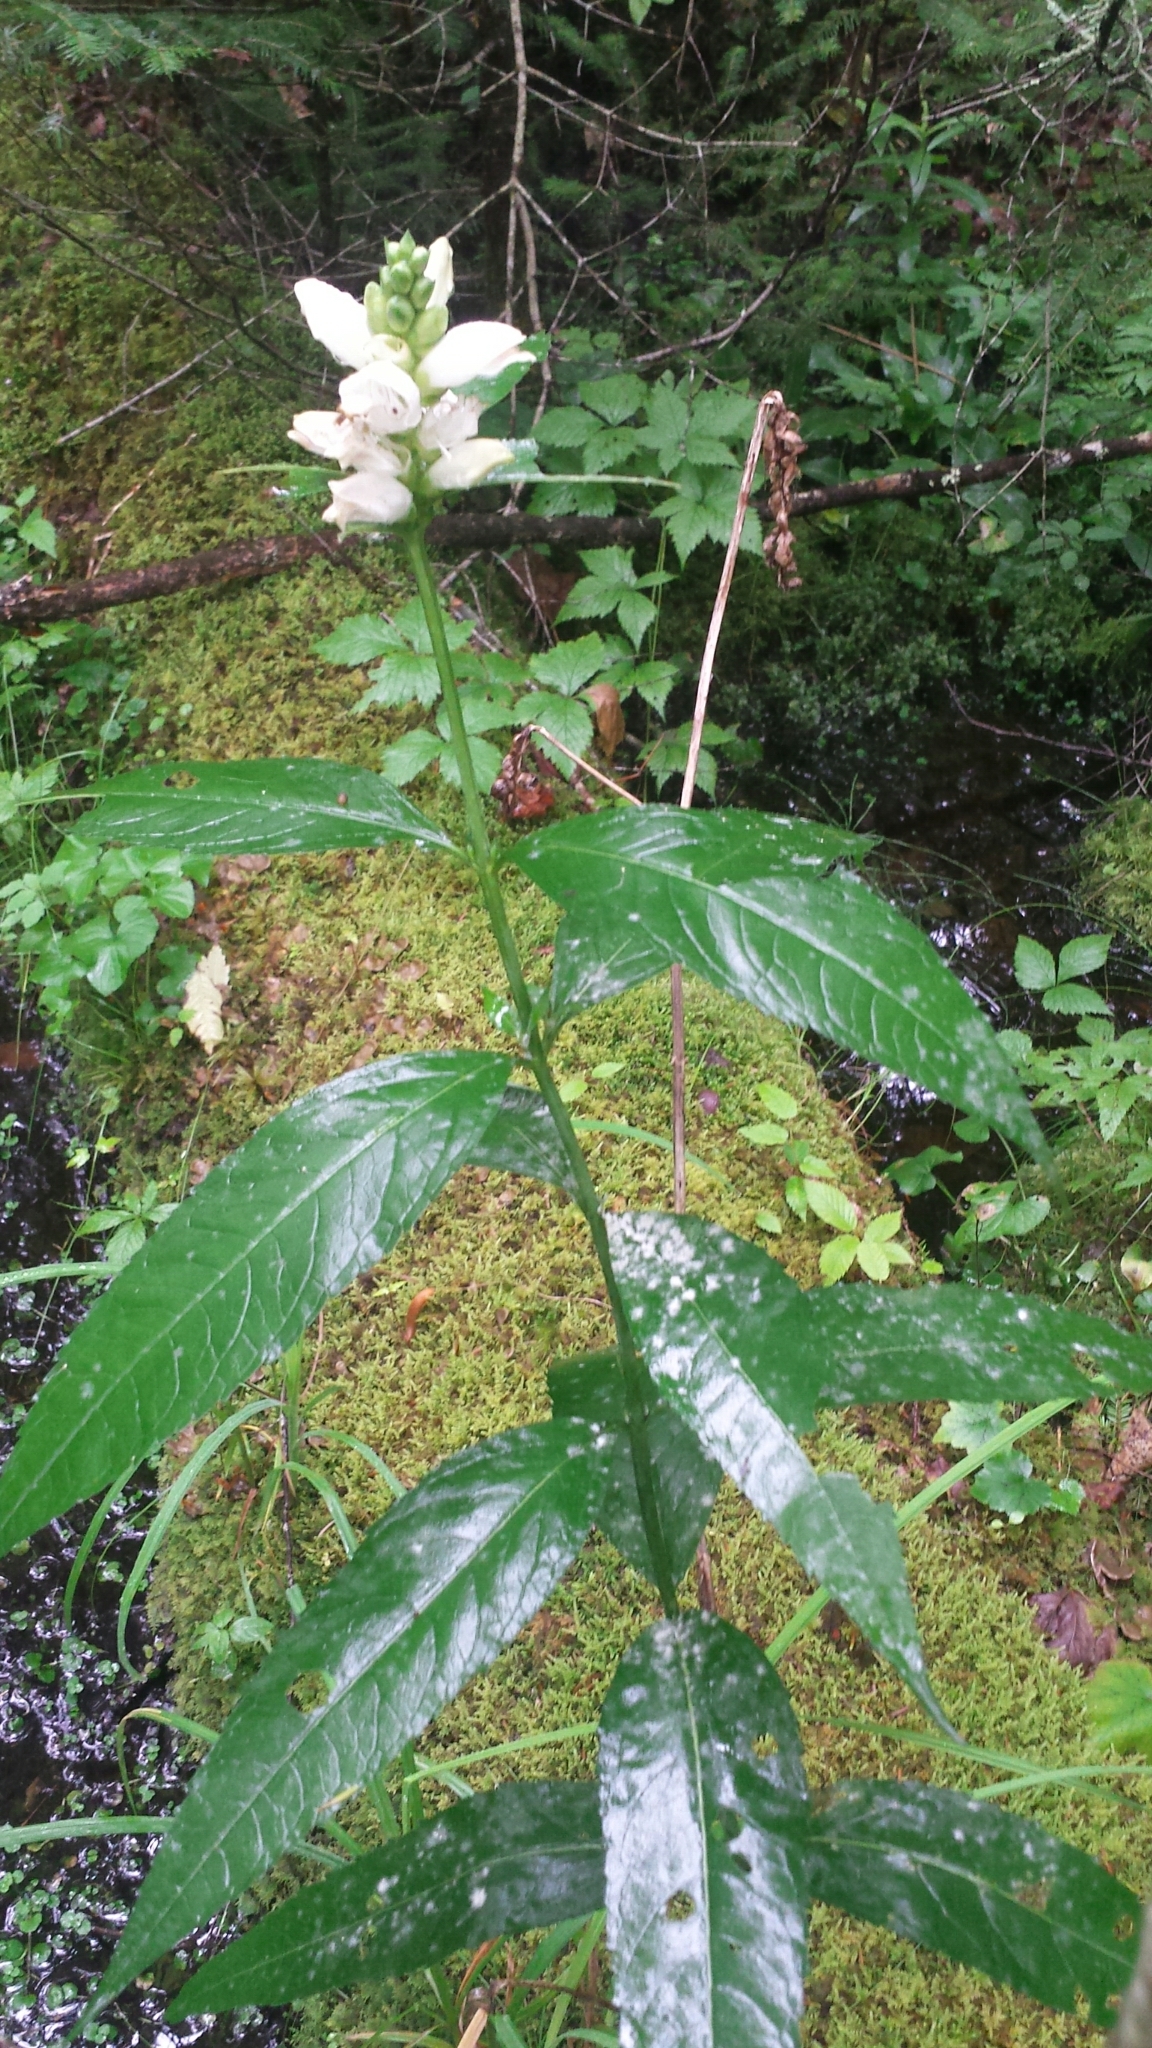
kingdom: Plantae
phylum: Tracheophyta
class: Magnoliopsida
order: Lamiales
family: Plantaginaceae
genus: Chelone
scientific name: Chelone glabra
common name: Snakehead
